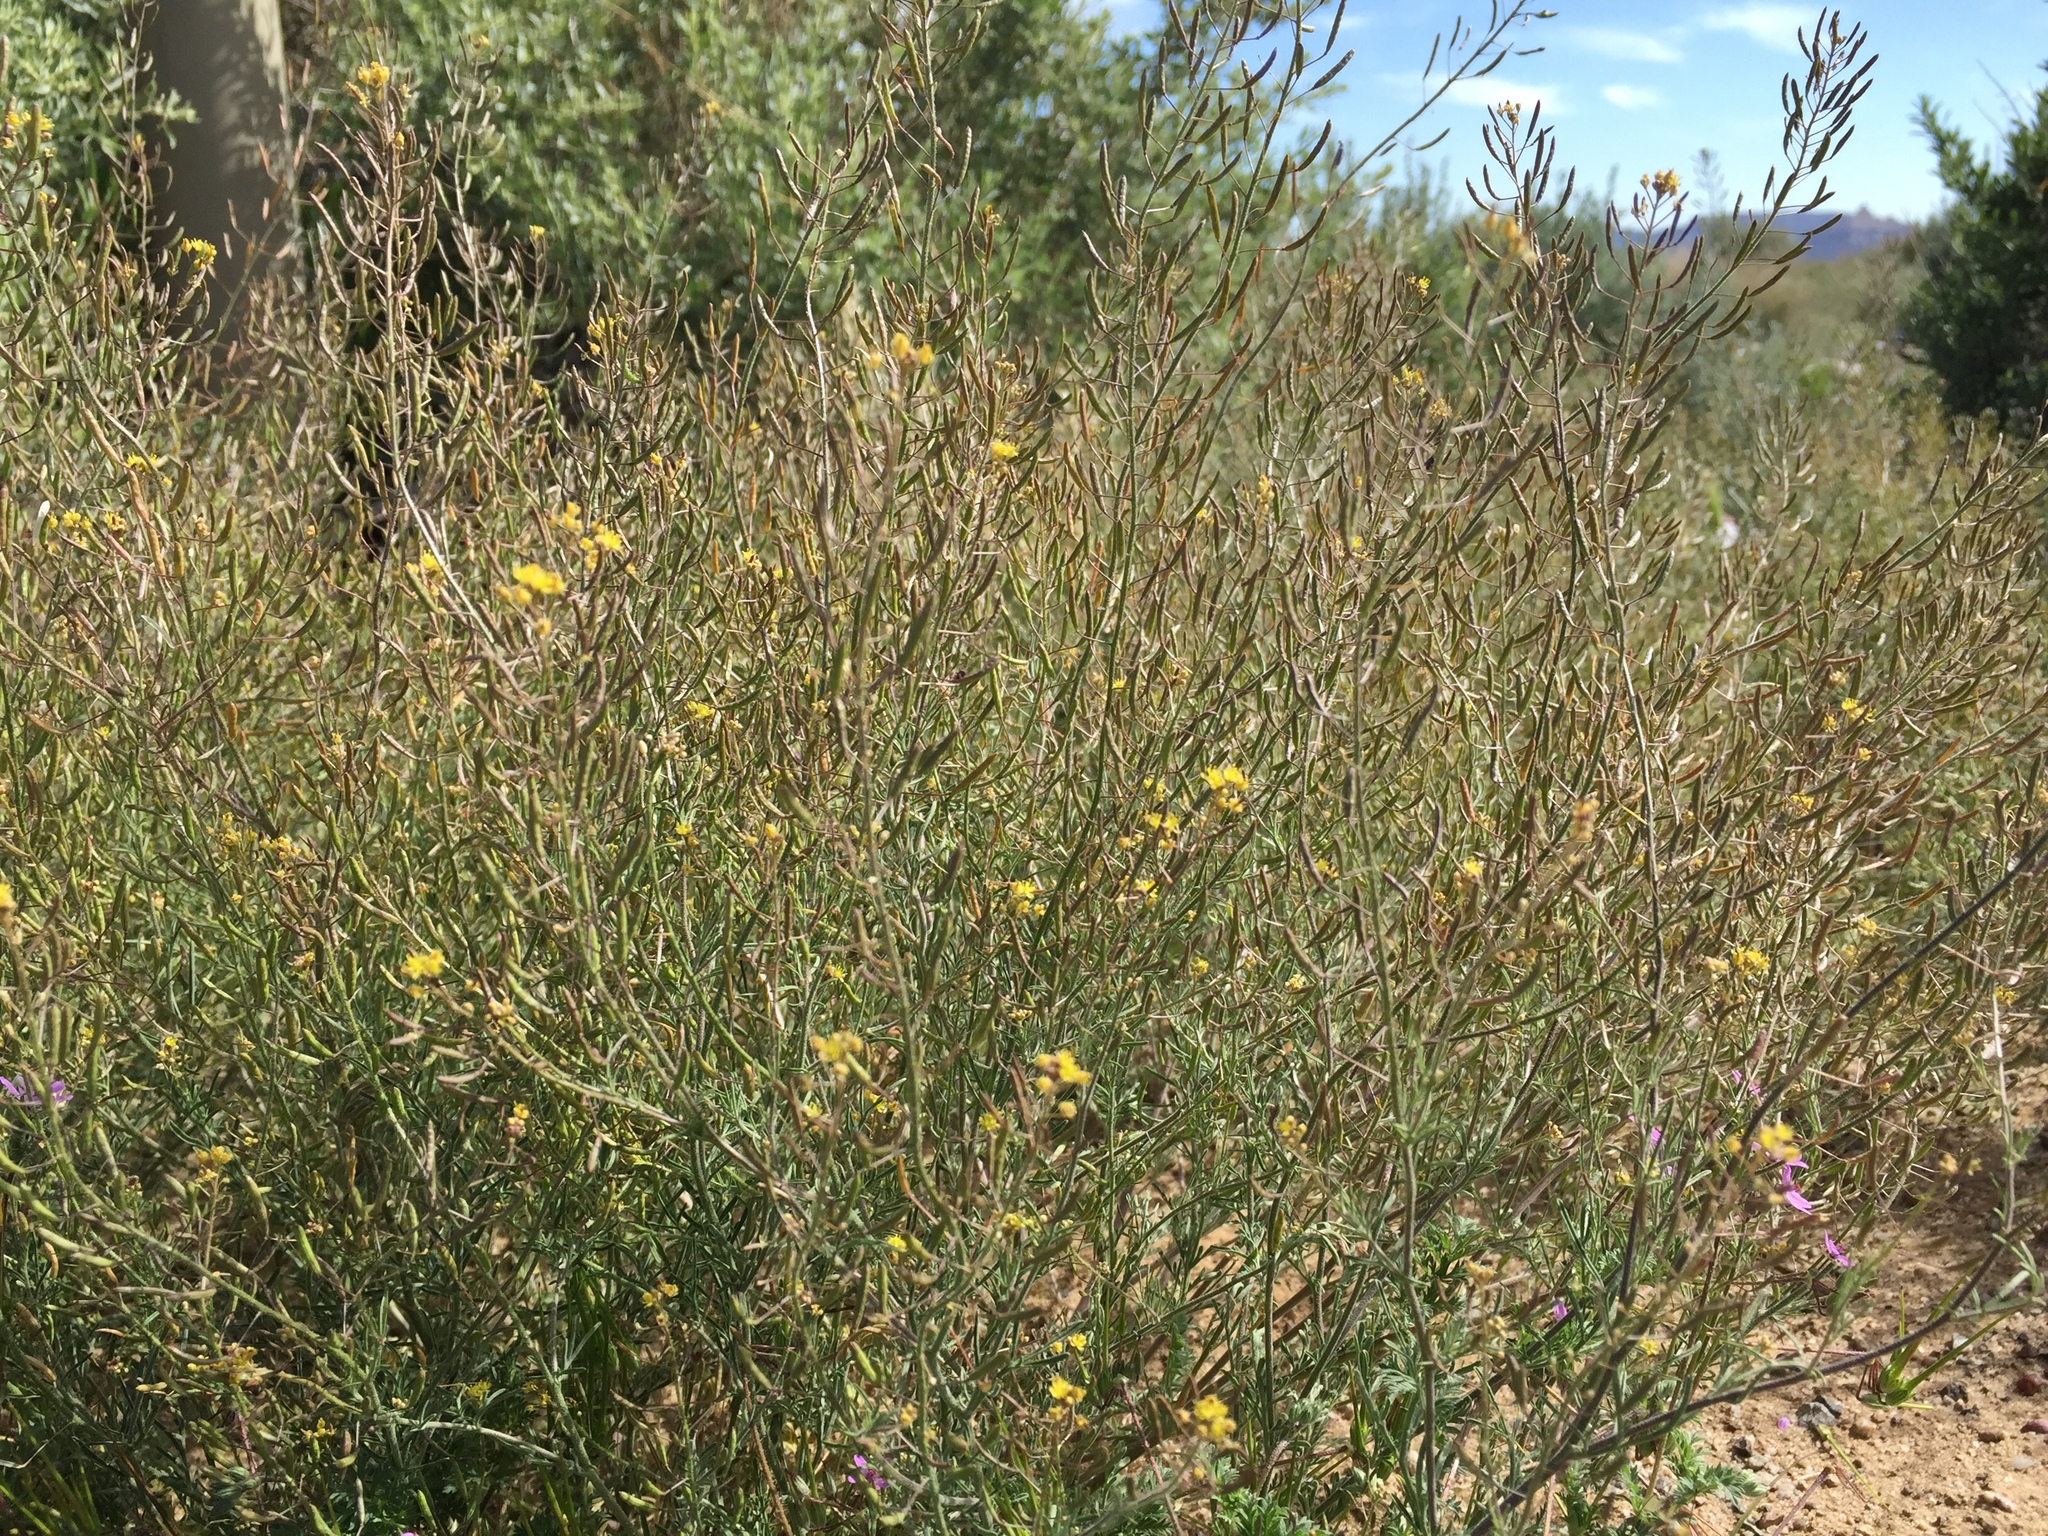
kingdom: Plantae
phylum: Tracheophyta
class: Magnoliopsida
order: Brassicales
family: Brassicaceae
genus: Descurainia
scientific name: Descurainia pinnata
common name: Western tansy mustard
